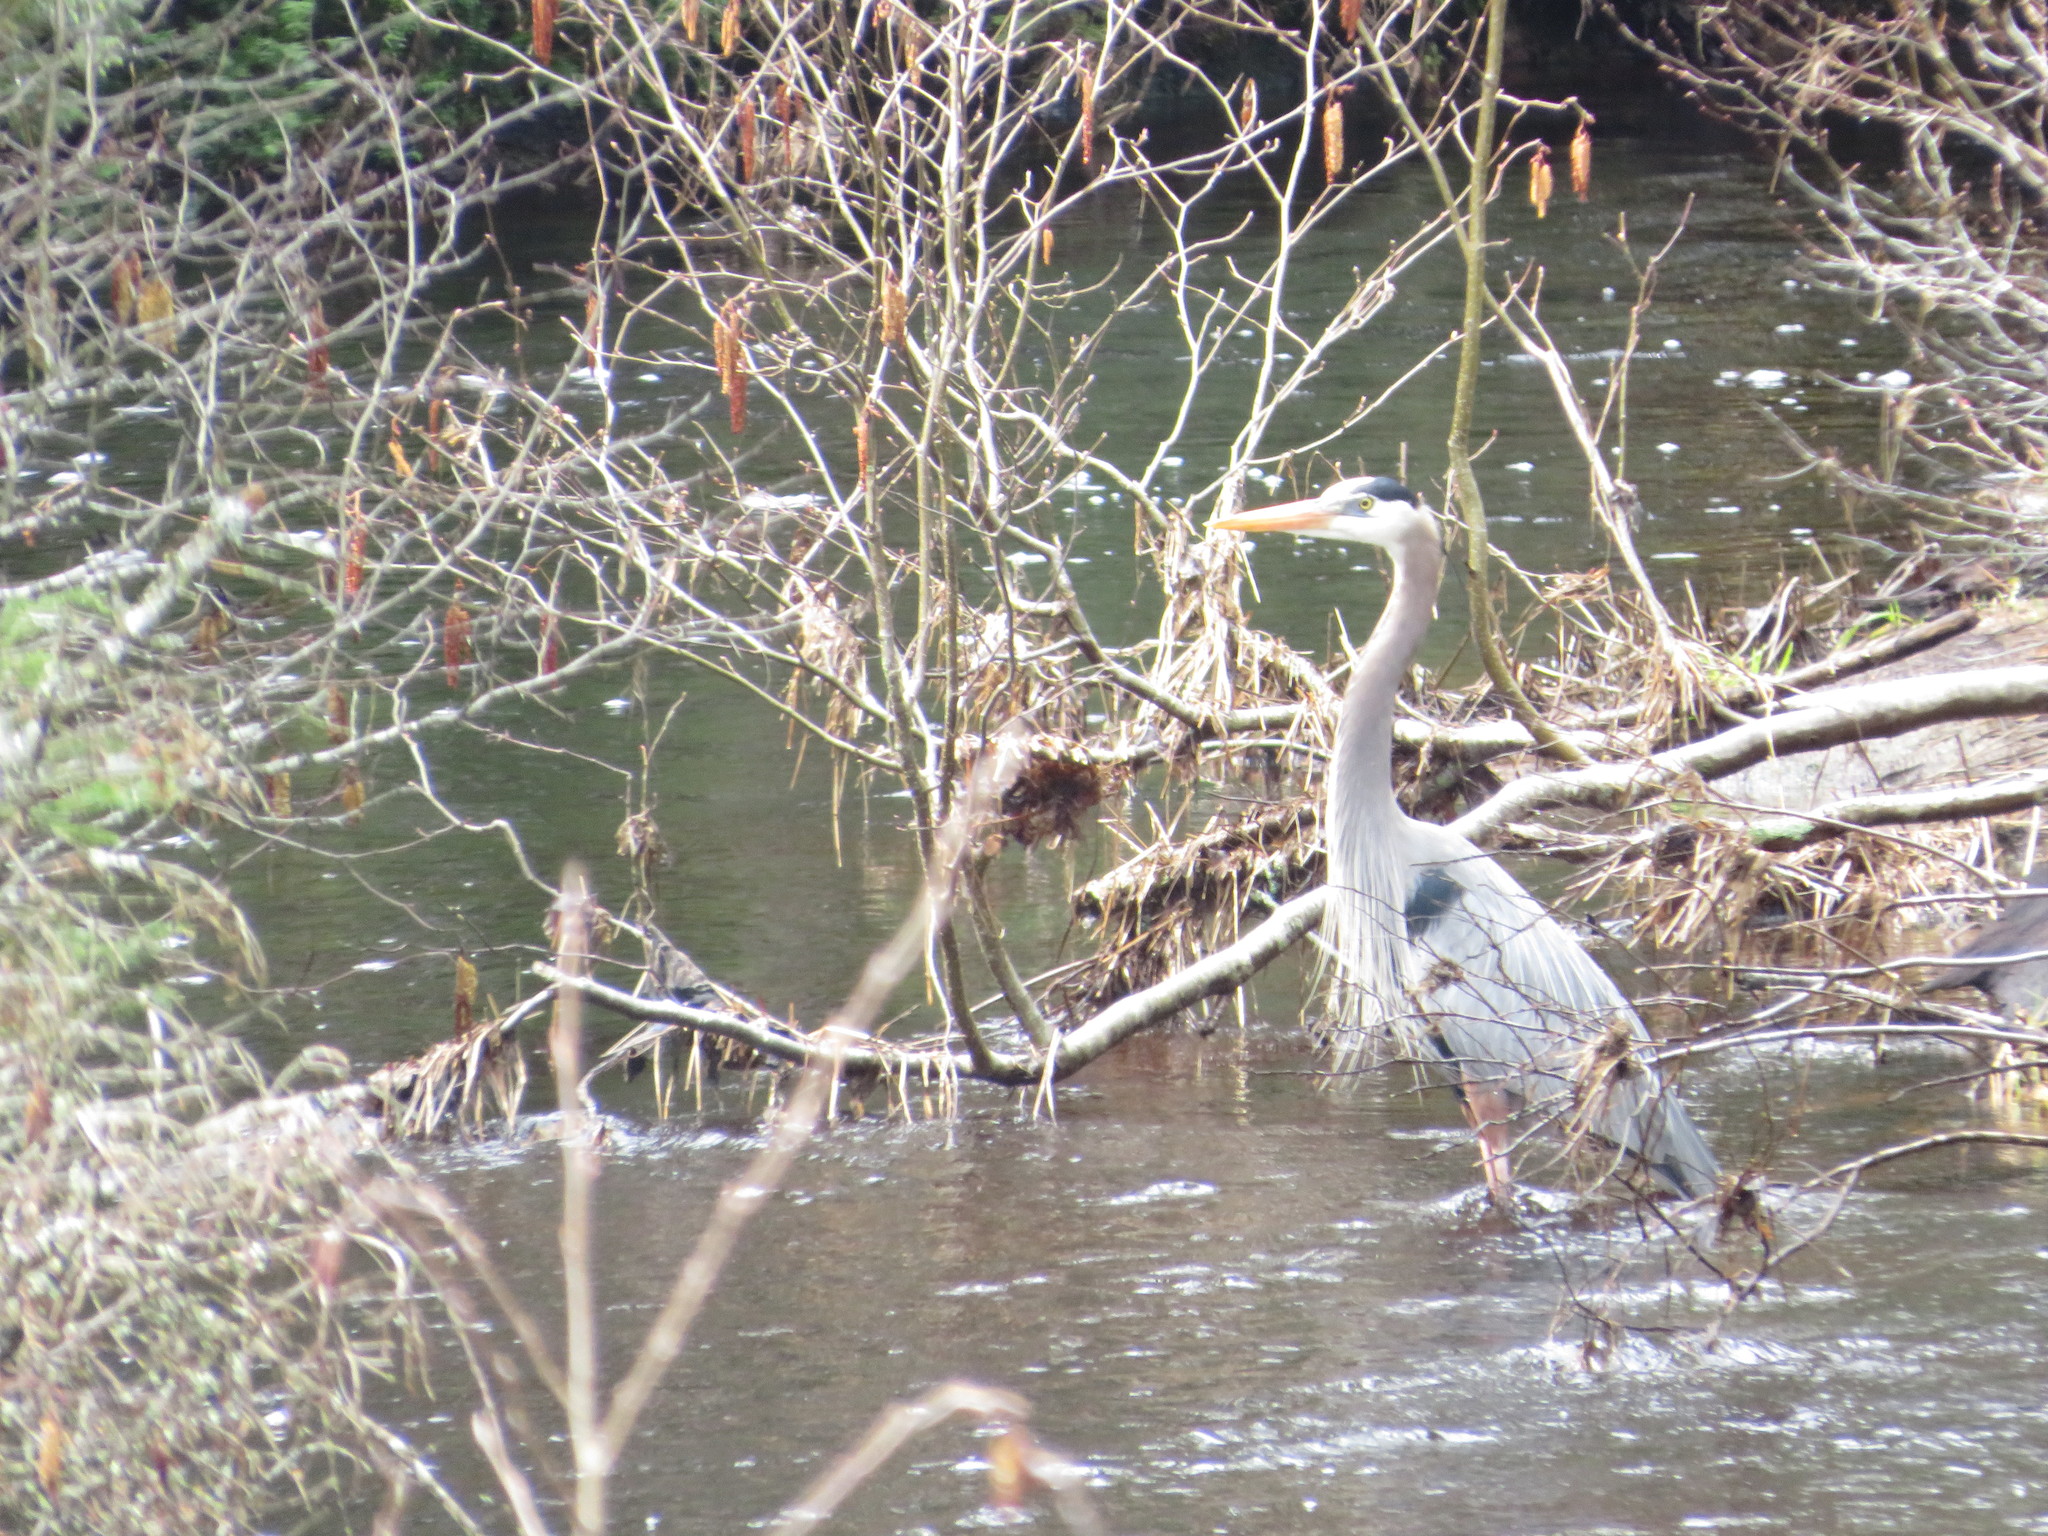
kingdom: Animalia
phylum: Chordata
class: Aves
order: Pelecaniformes
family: Ardeidae
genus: Ardea
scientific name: Ardea herodias
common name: Great blue heron
